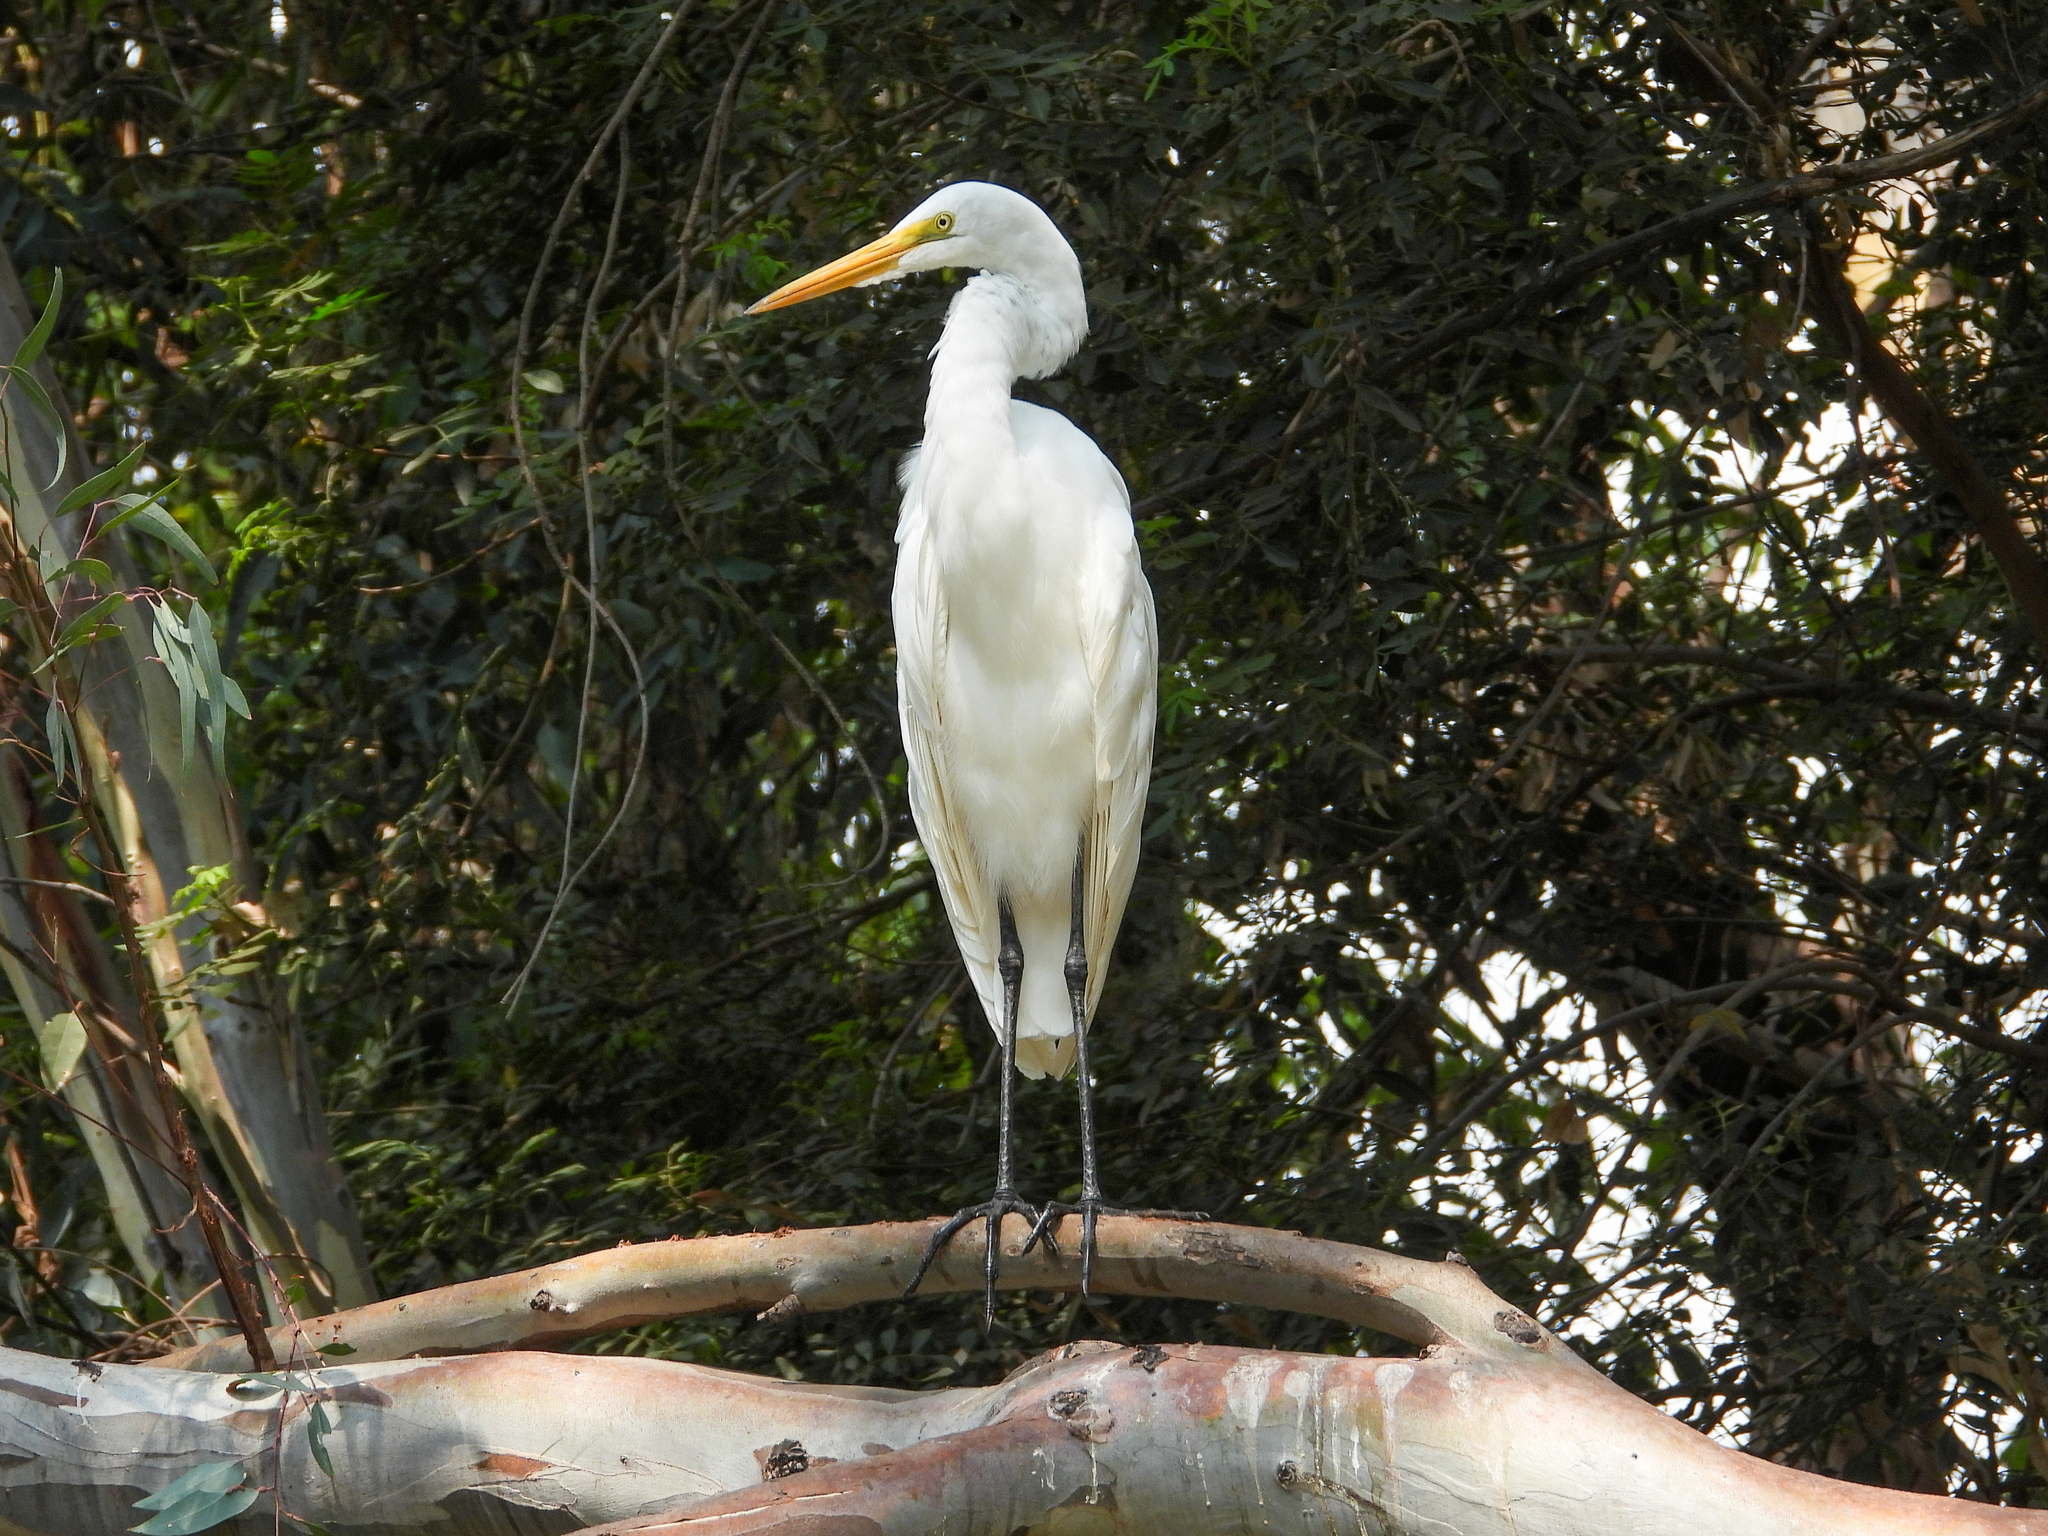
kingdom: Animalia
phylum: Chordata
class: Aves
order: Pelecaniformes
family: Ardeidae
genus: Ardea
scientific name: Ardea alba
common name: Great egret
